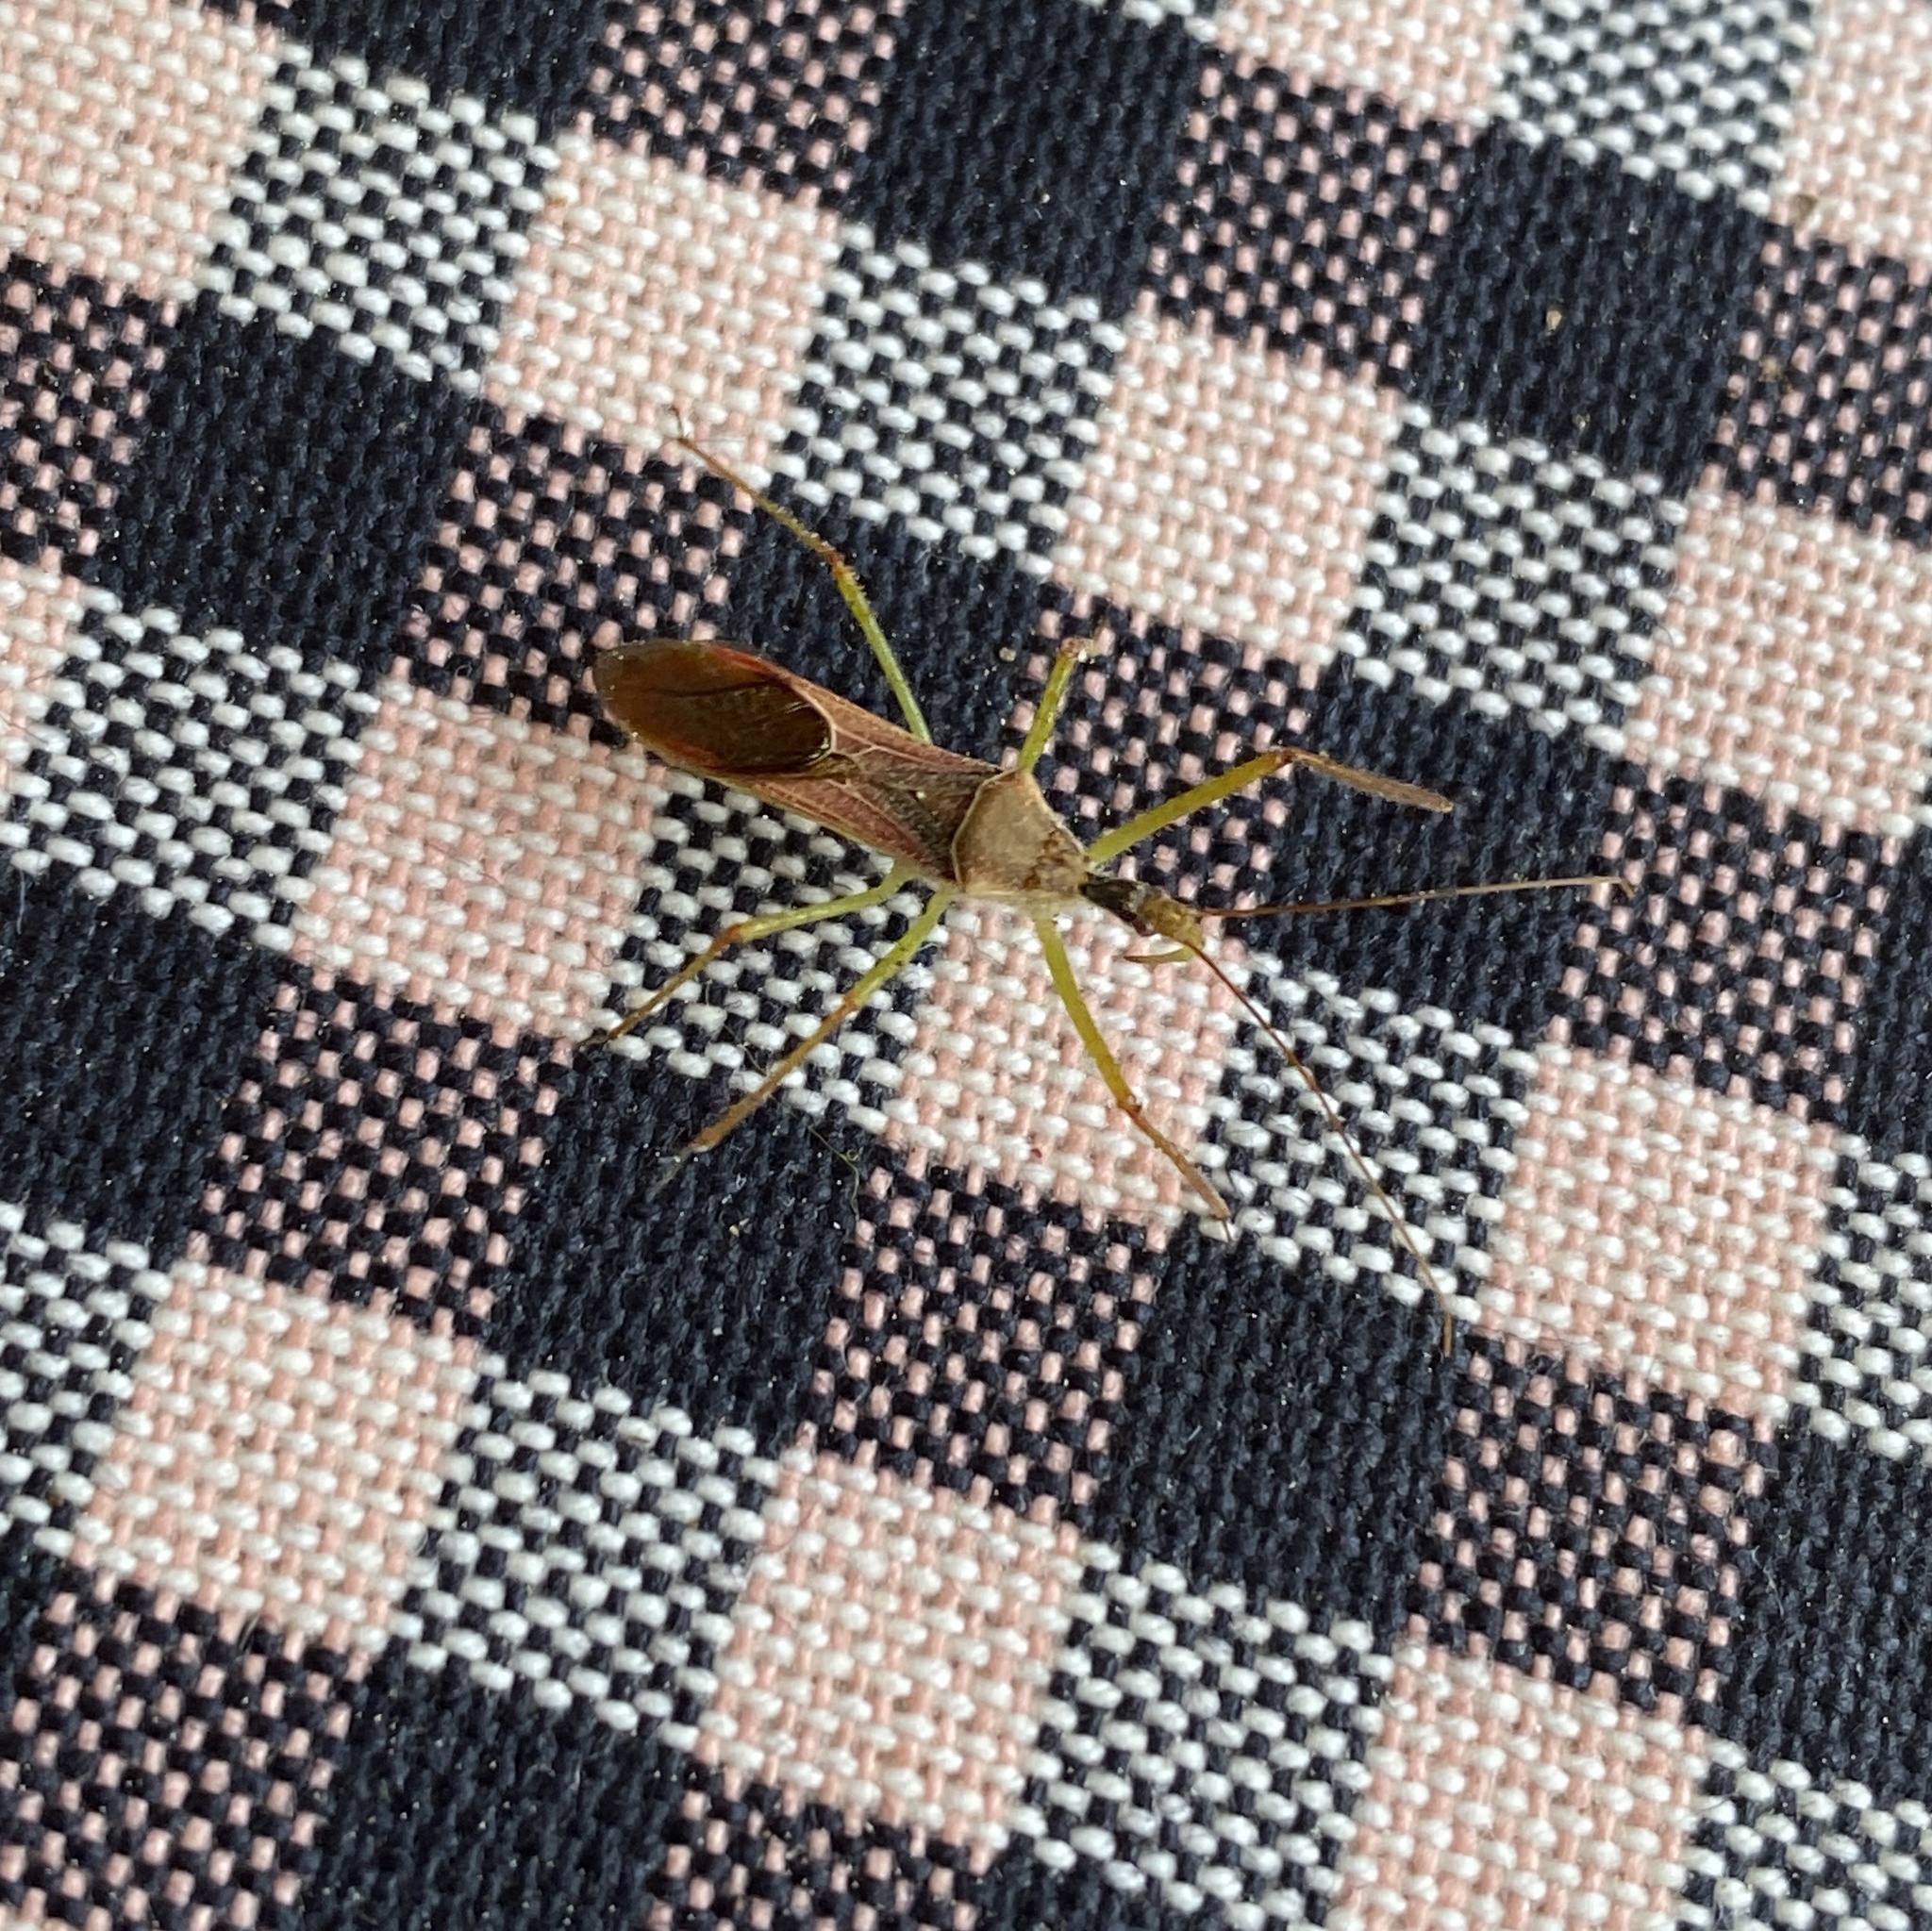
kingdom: Animalia
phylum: Arthropoda
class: Insecta
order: Hemiptera
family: Reduviidae
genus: Zelus
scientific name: Zelus renardii
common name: Assassin bug
